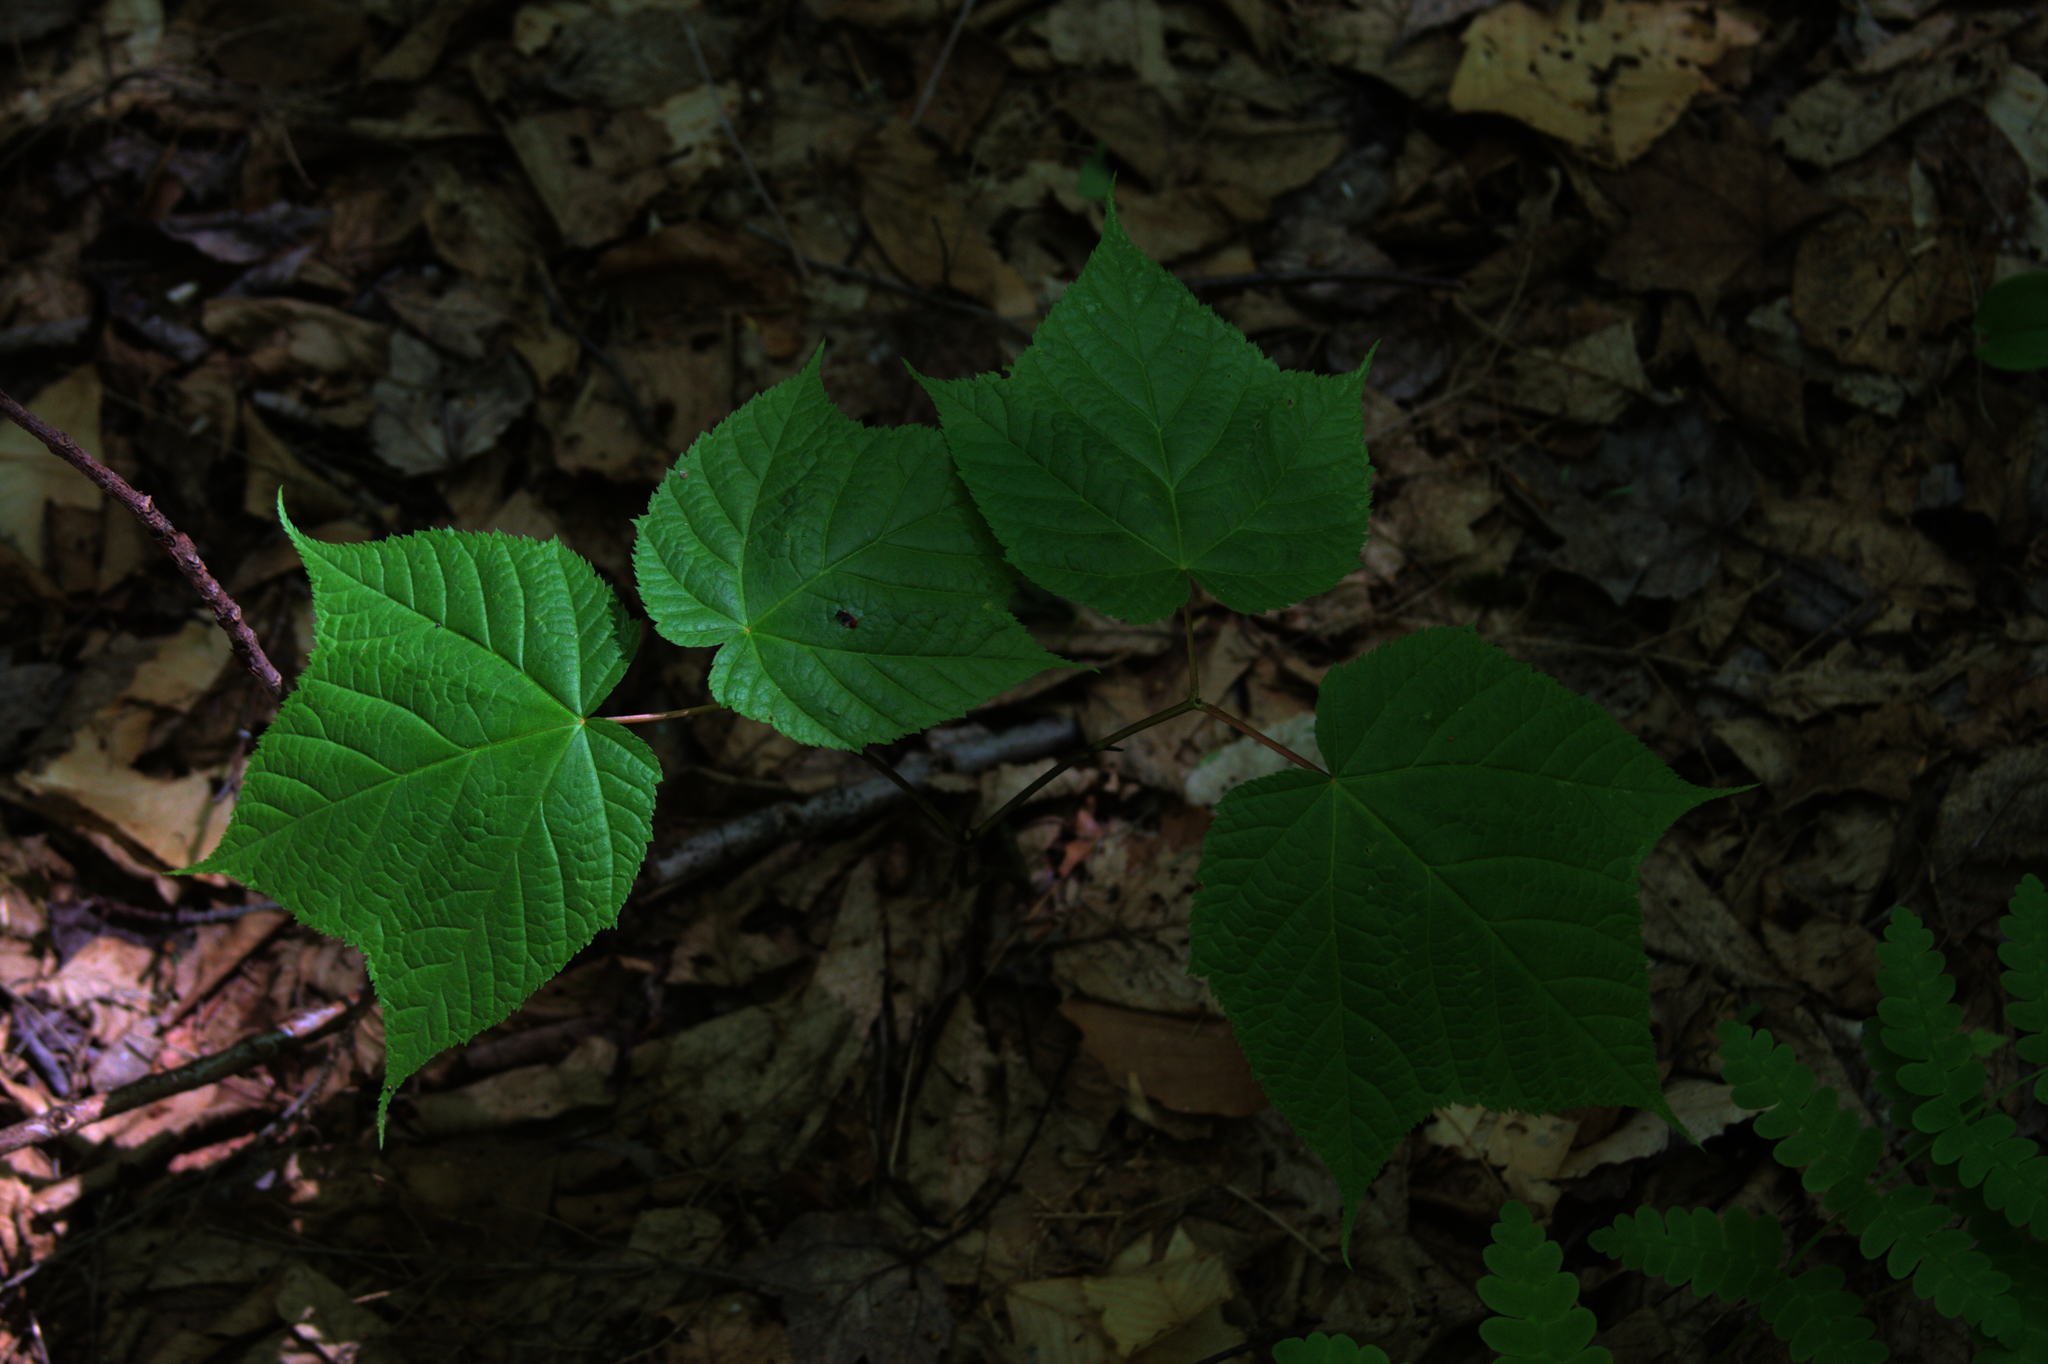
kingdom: Plantae
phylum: Tracheophyta
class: Magnoliopsida
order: Sapindales
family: Sapindaceae
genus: Acer
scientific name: Acer pensylvanicum
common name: Moosewood
